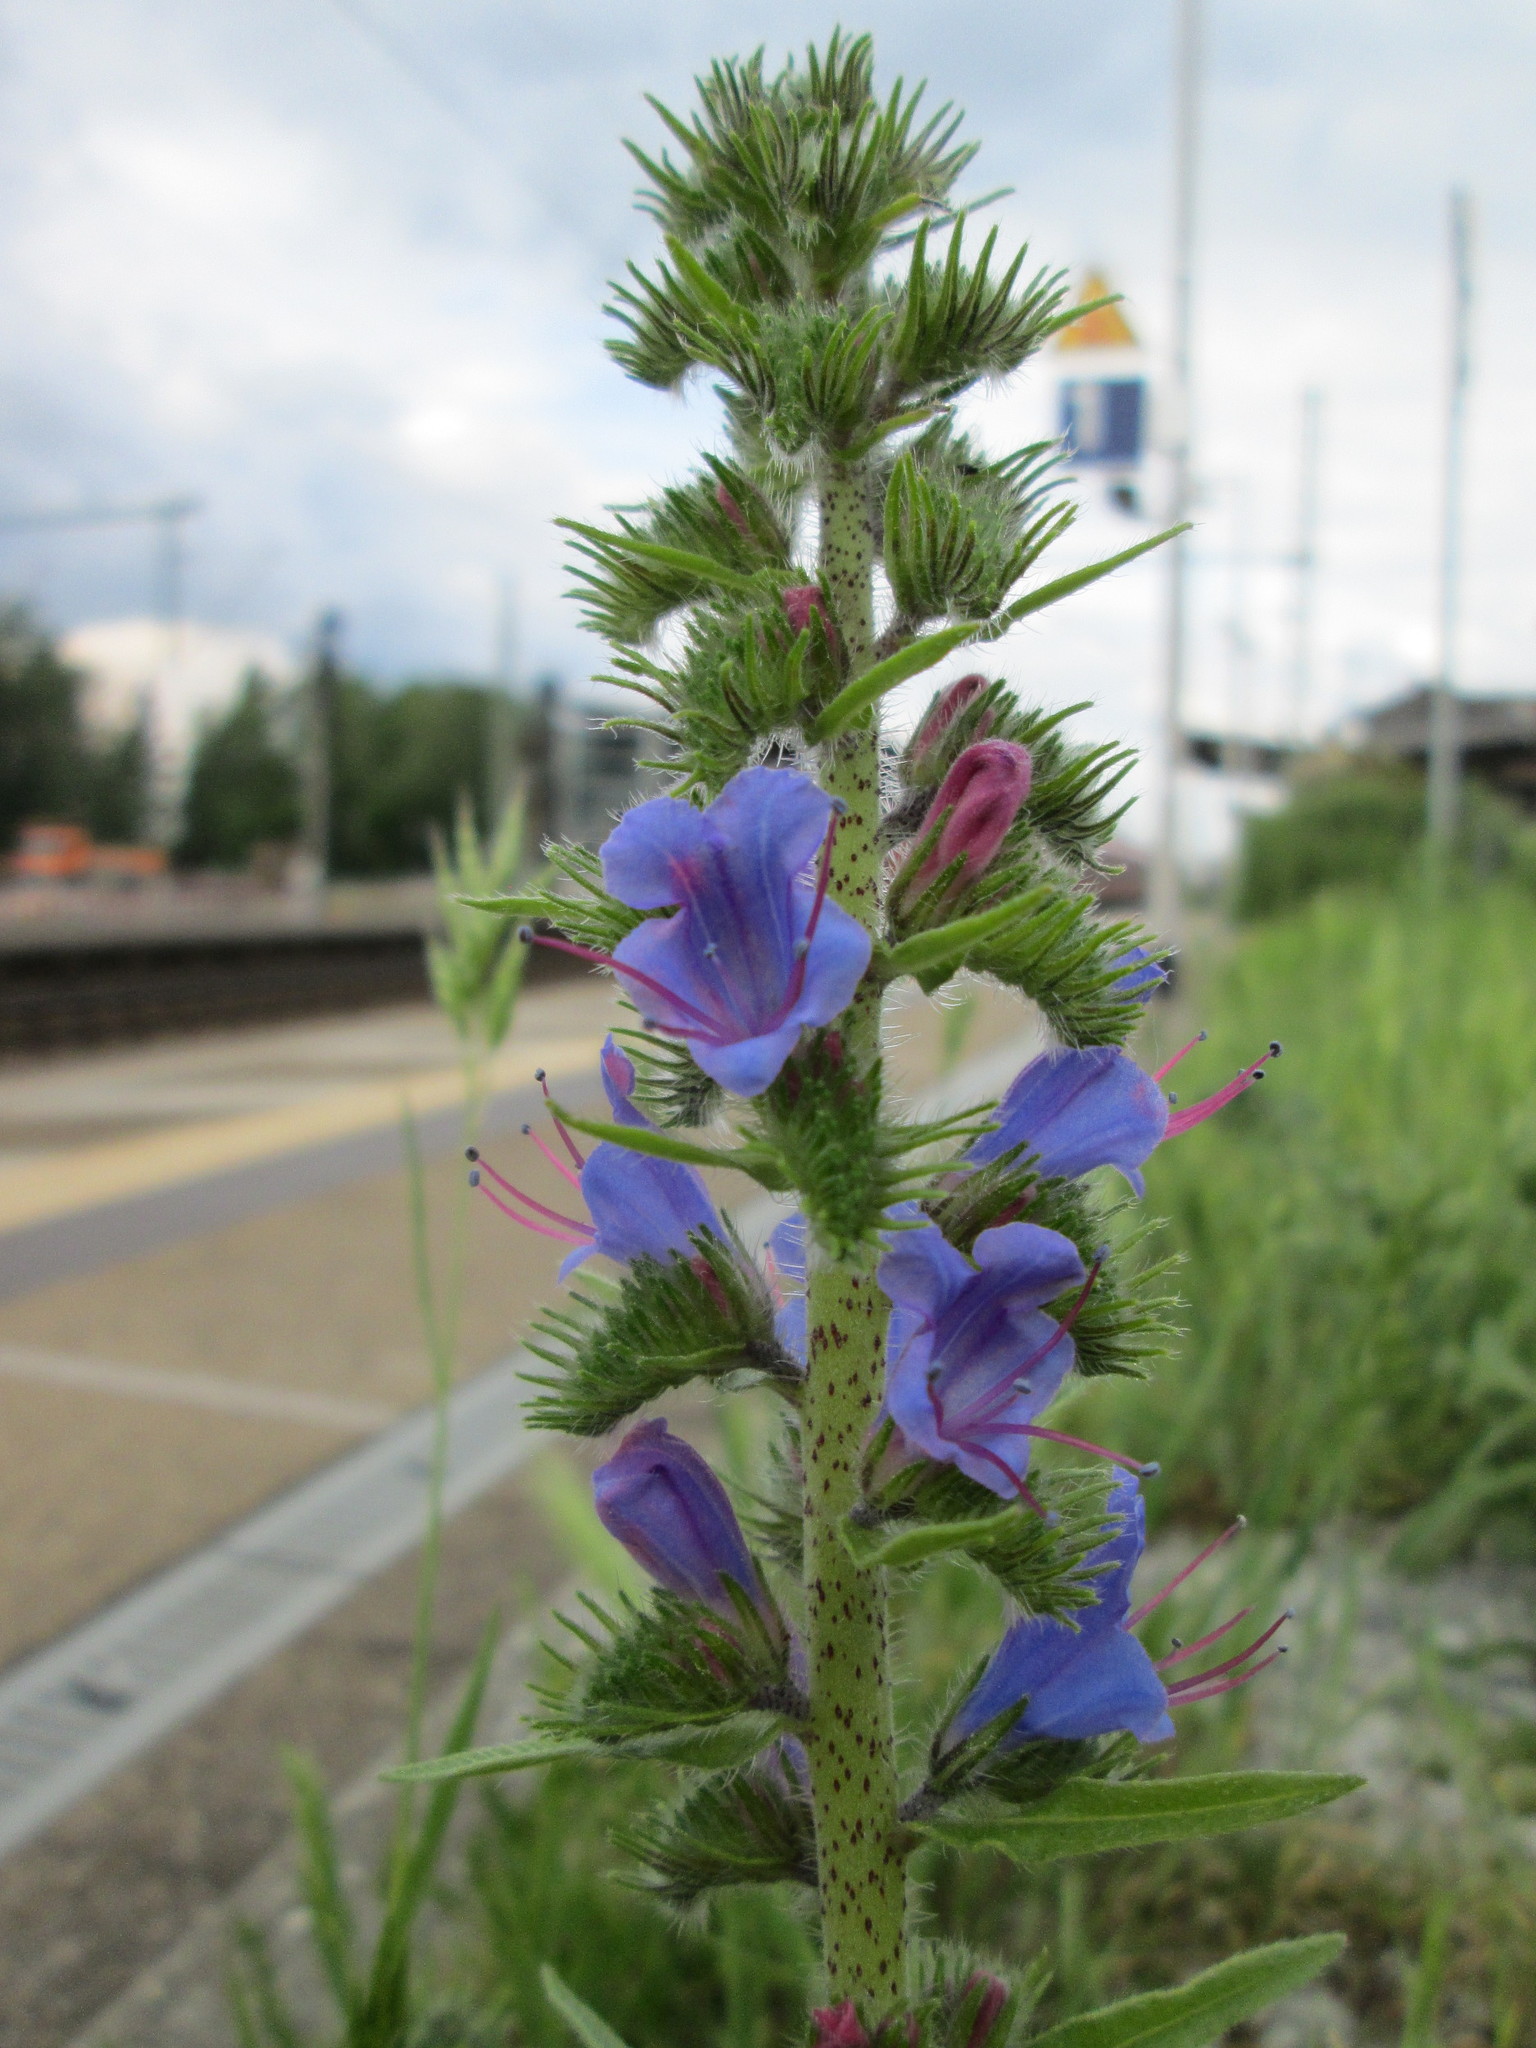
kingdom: Plantae
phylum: Tracheophyta
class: Magnoliopsida
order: Boraginales
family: Boraginaceae
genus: Echium
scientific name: Echium vulgare
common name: Common viper's bugloss
